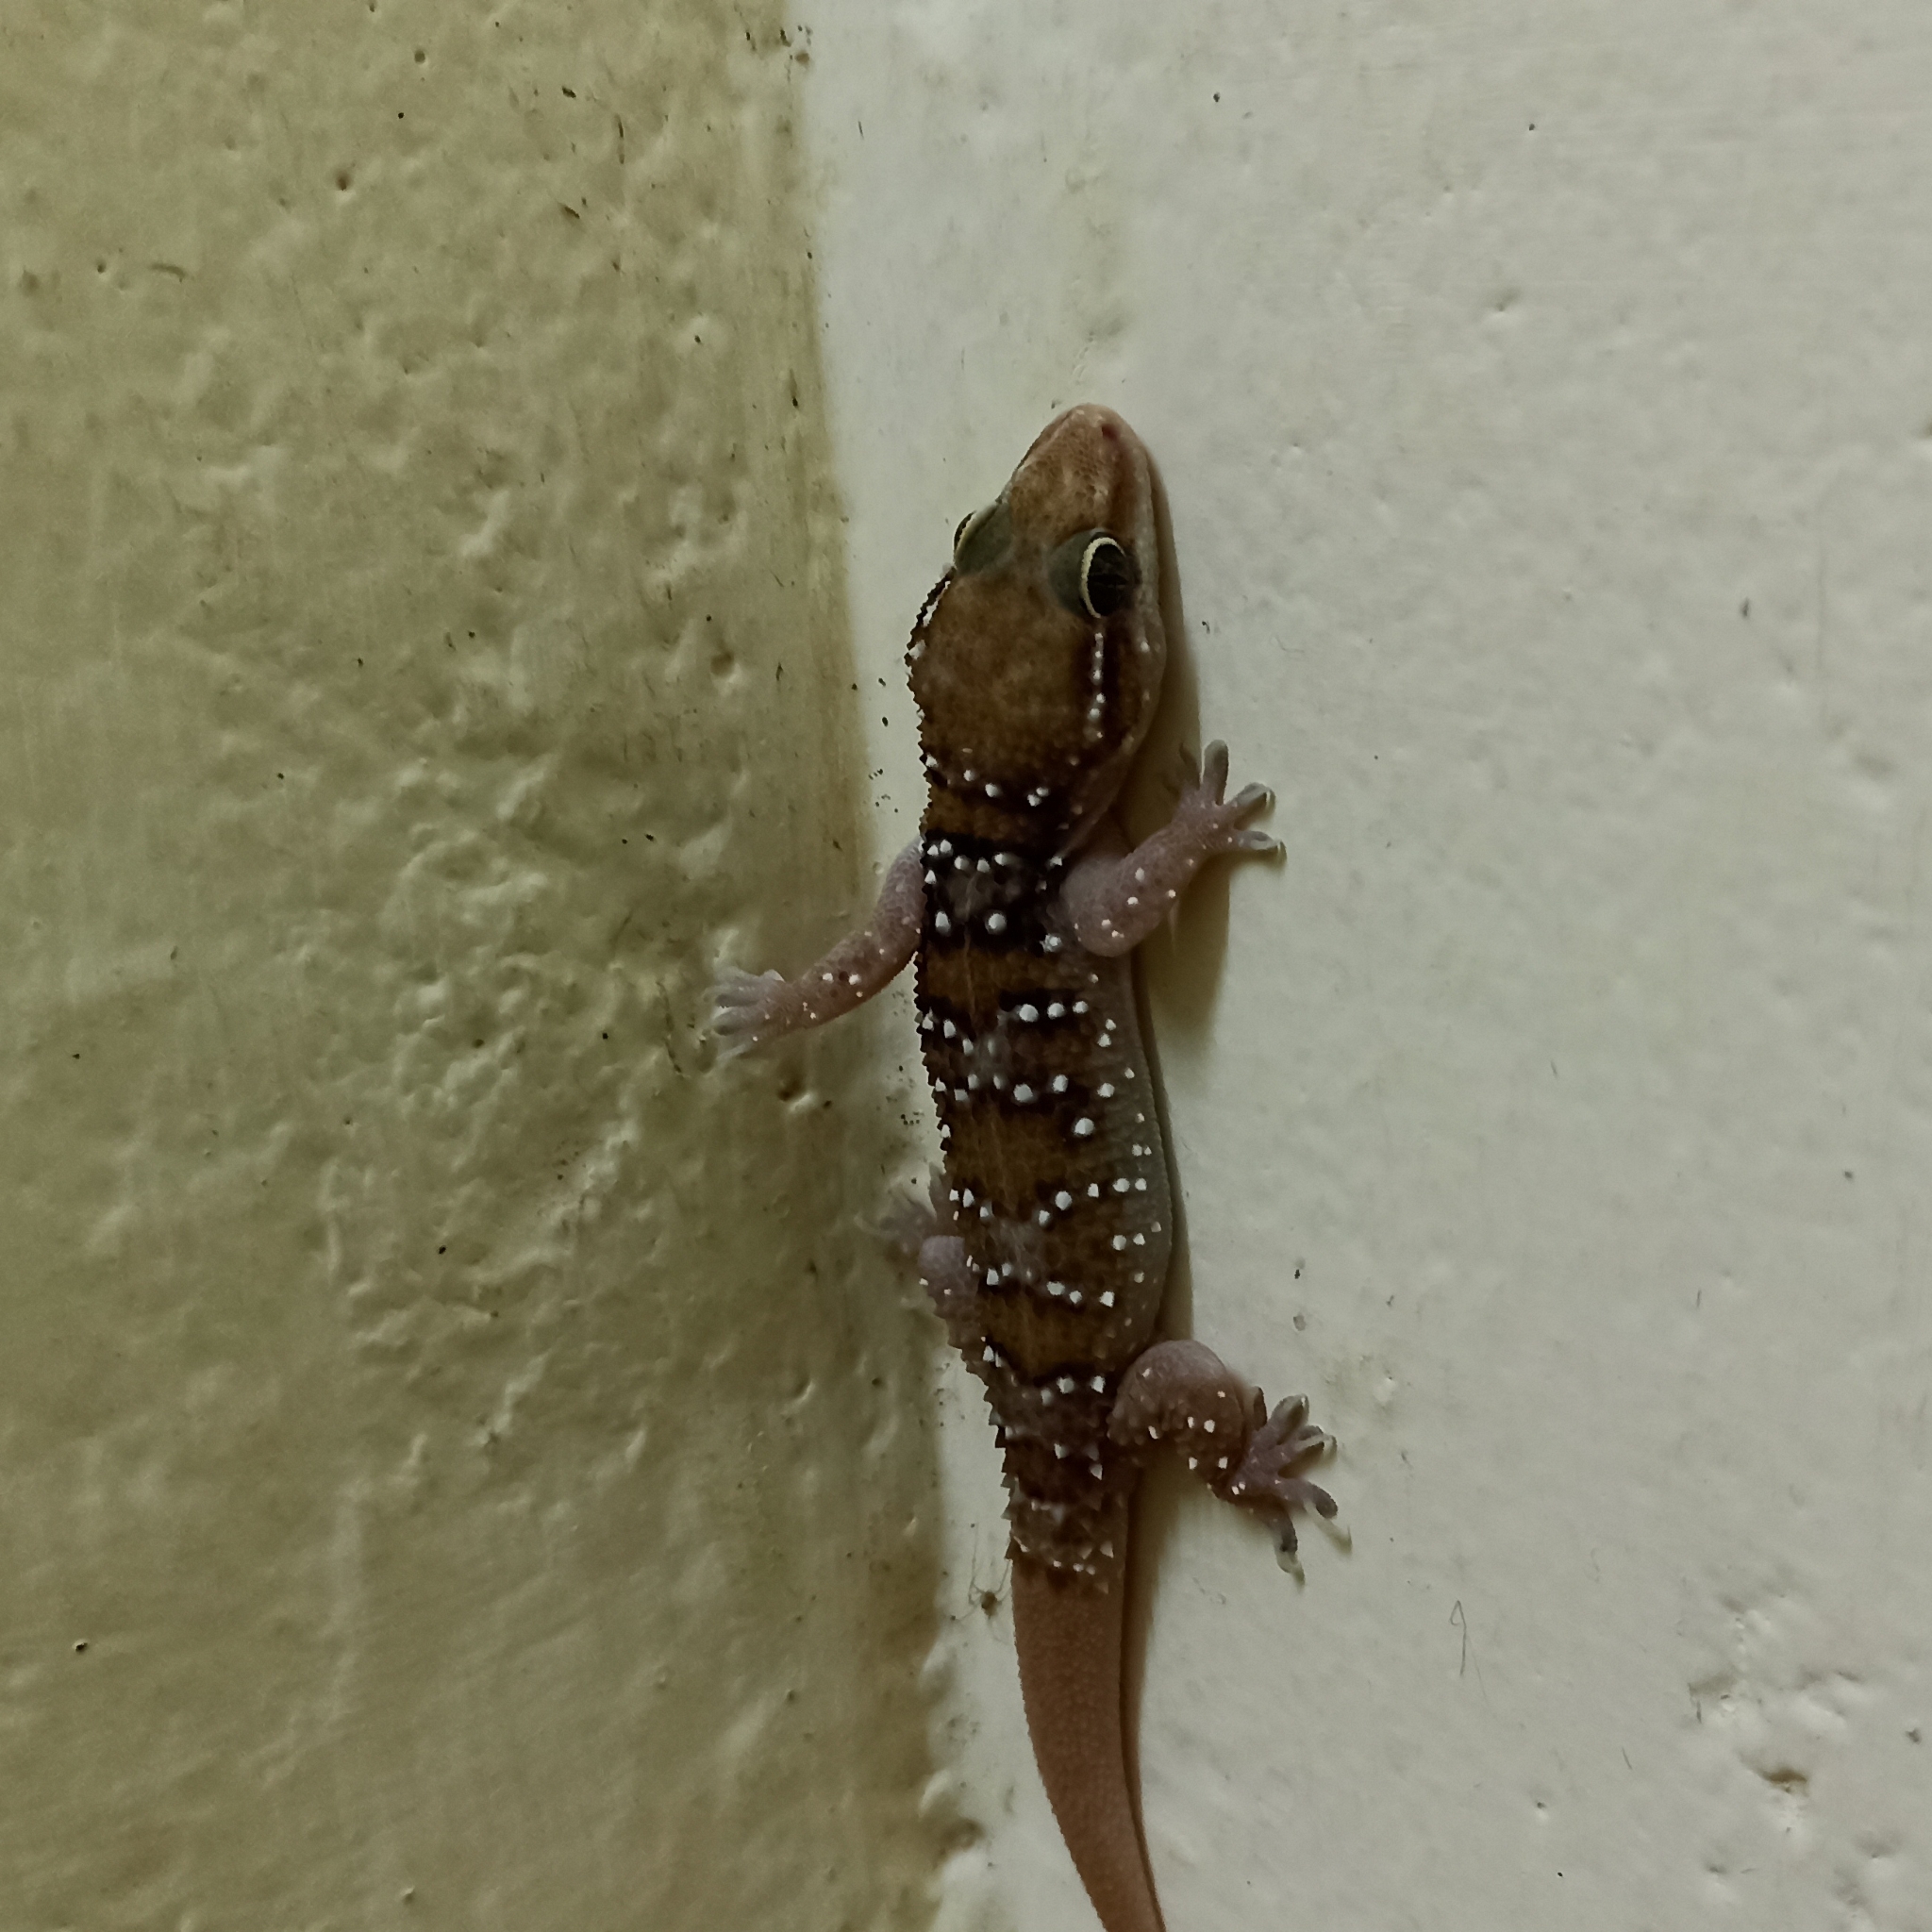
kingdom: Animalia
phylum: Chordata
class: Squamata
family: Gekkonidae
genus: Hemidactylus
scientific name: Hemidactylus triedrus
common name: Blotched house gecko
